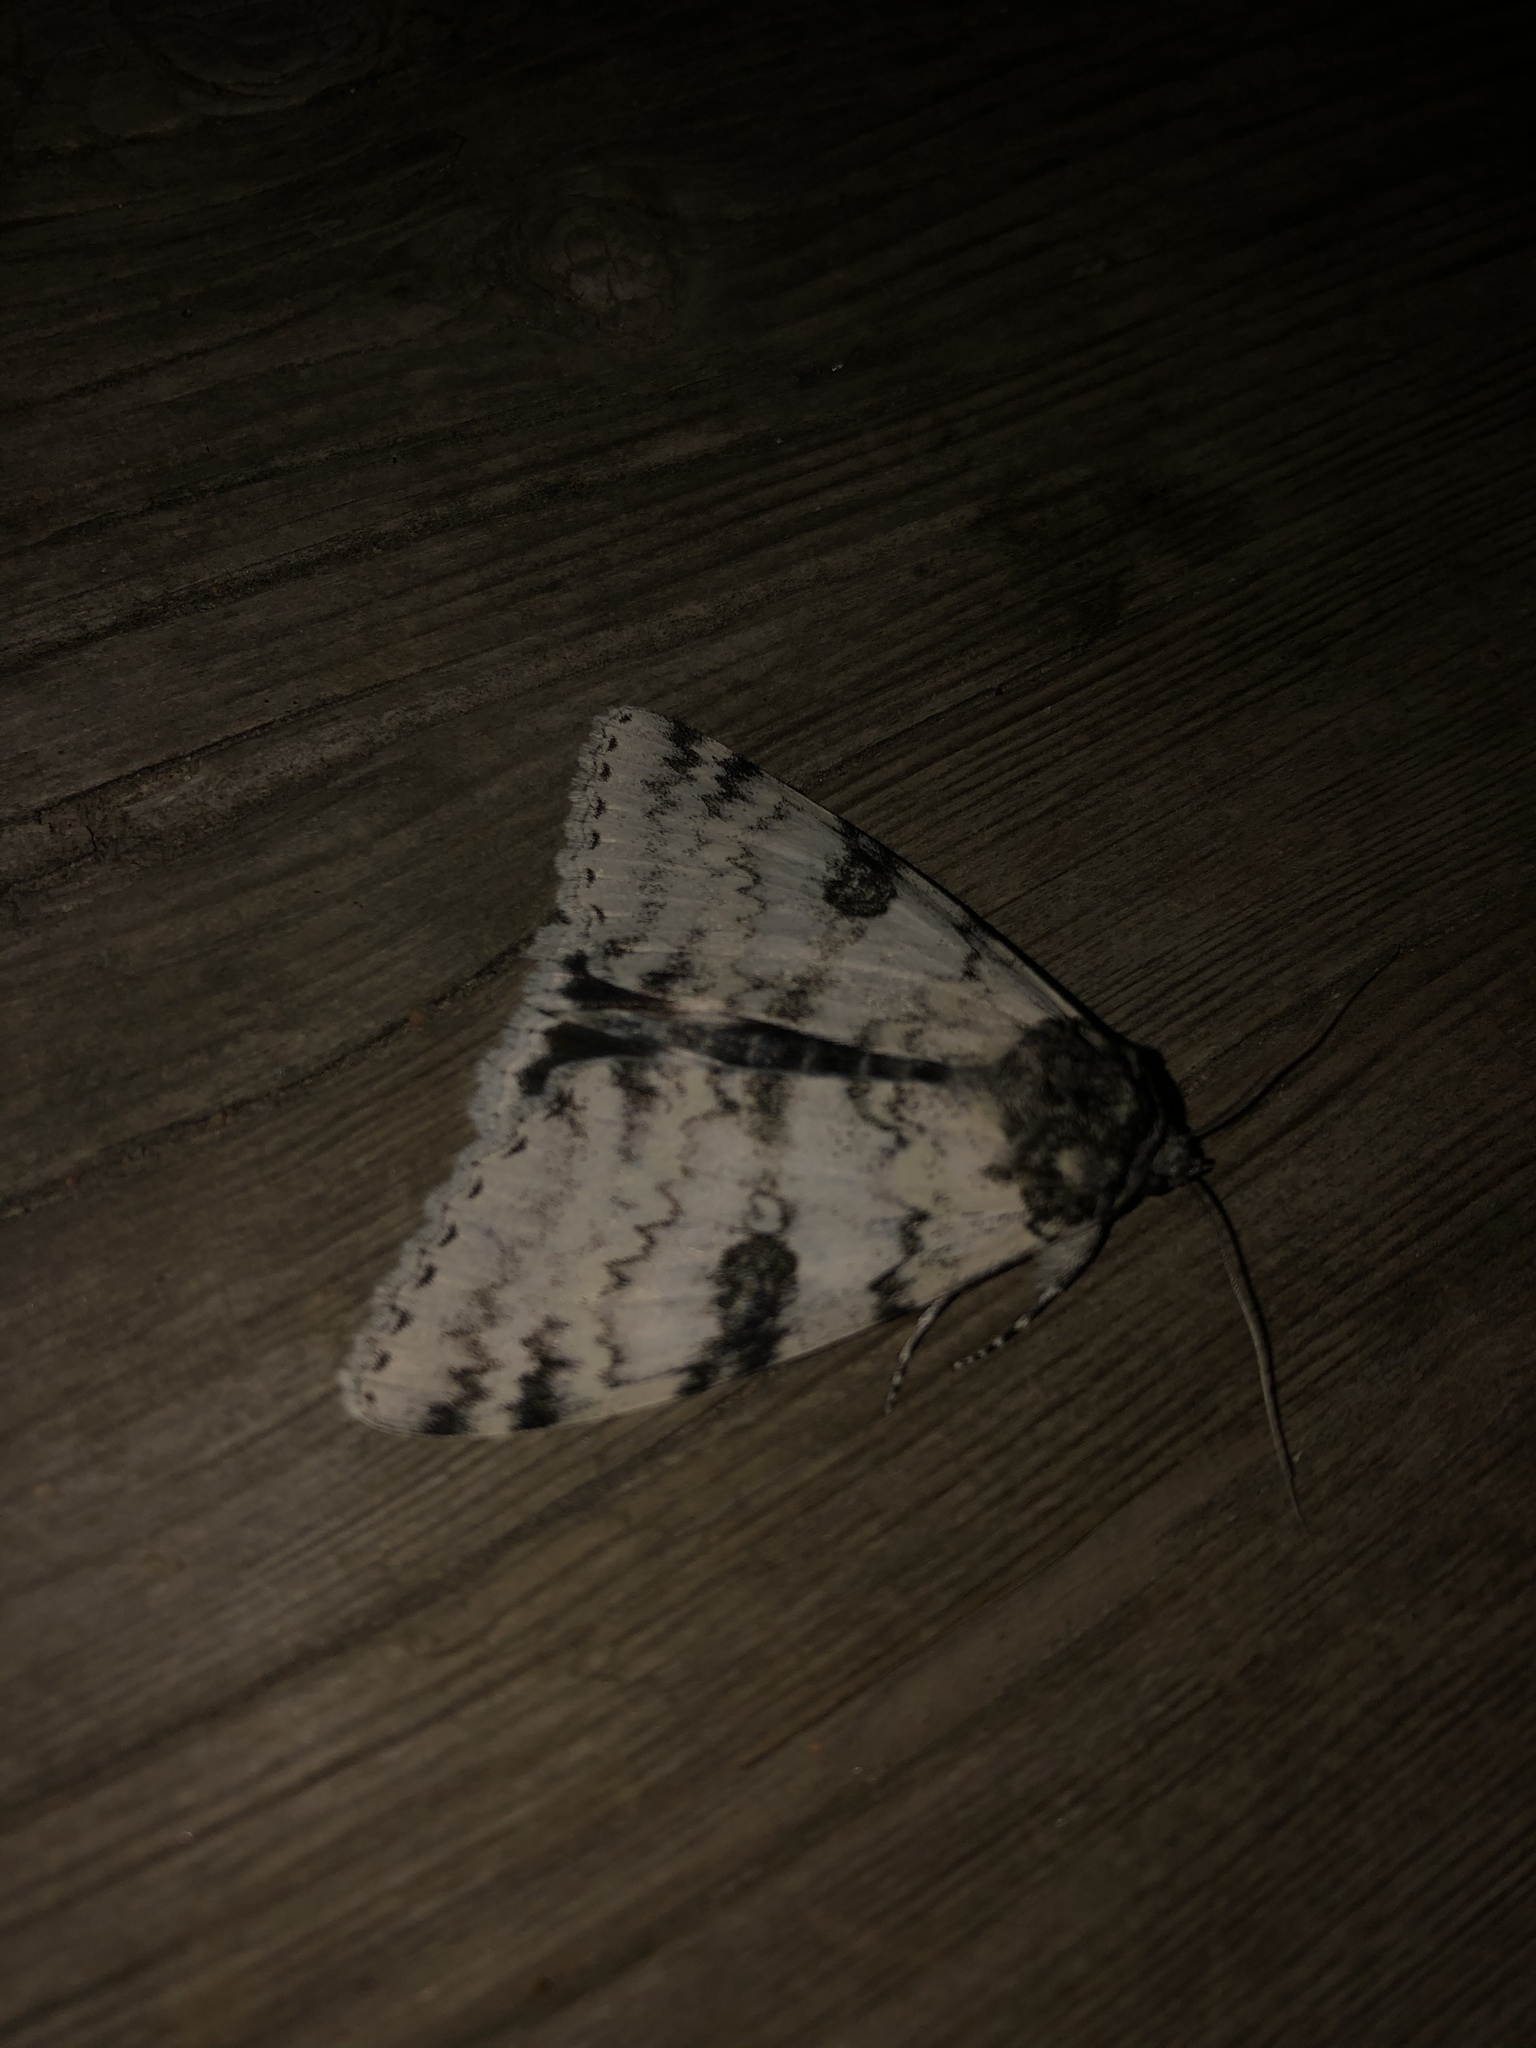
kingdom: Animalia
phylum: Arthropoda
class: Insecta
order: Lepidoptera
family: Erebidae
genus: Catocala
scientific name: Catocala relicta
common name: White underwing
